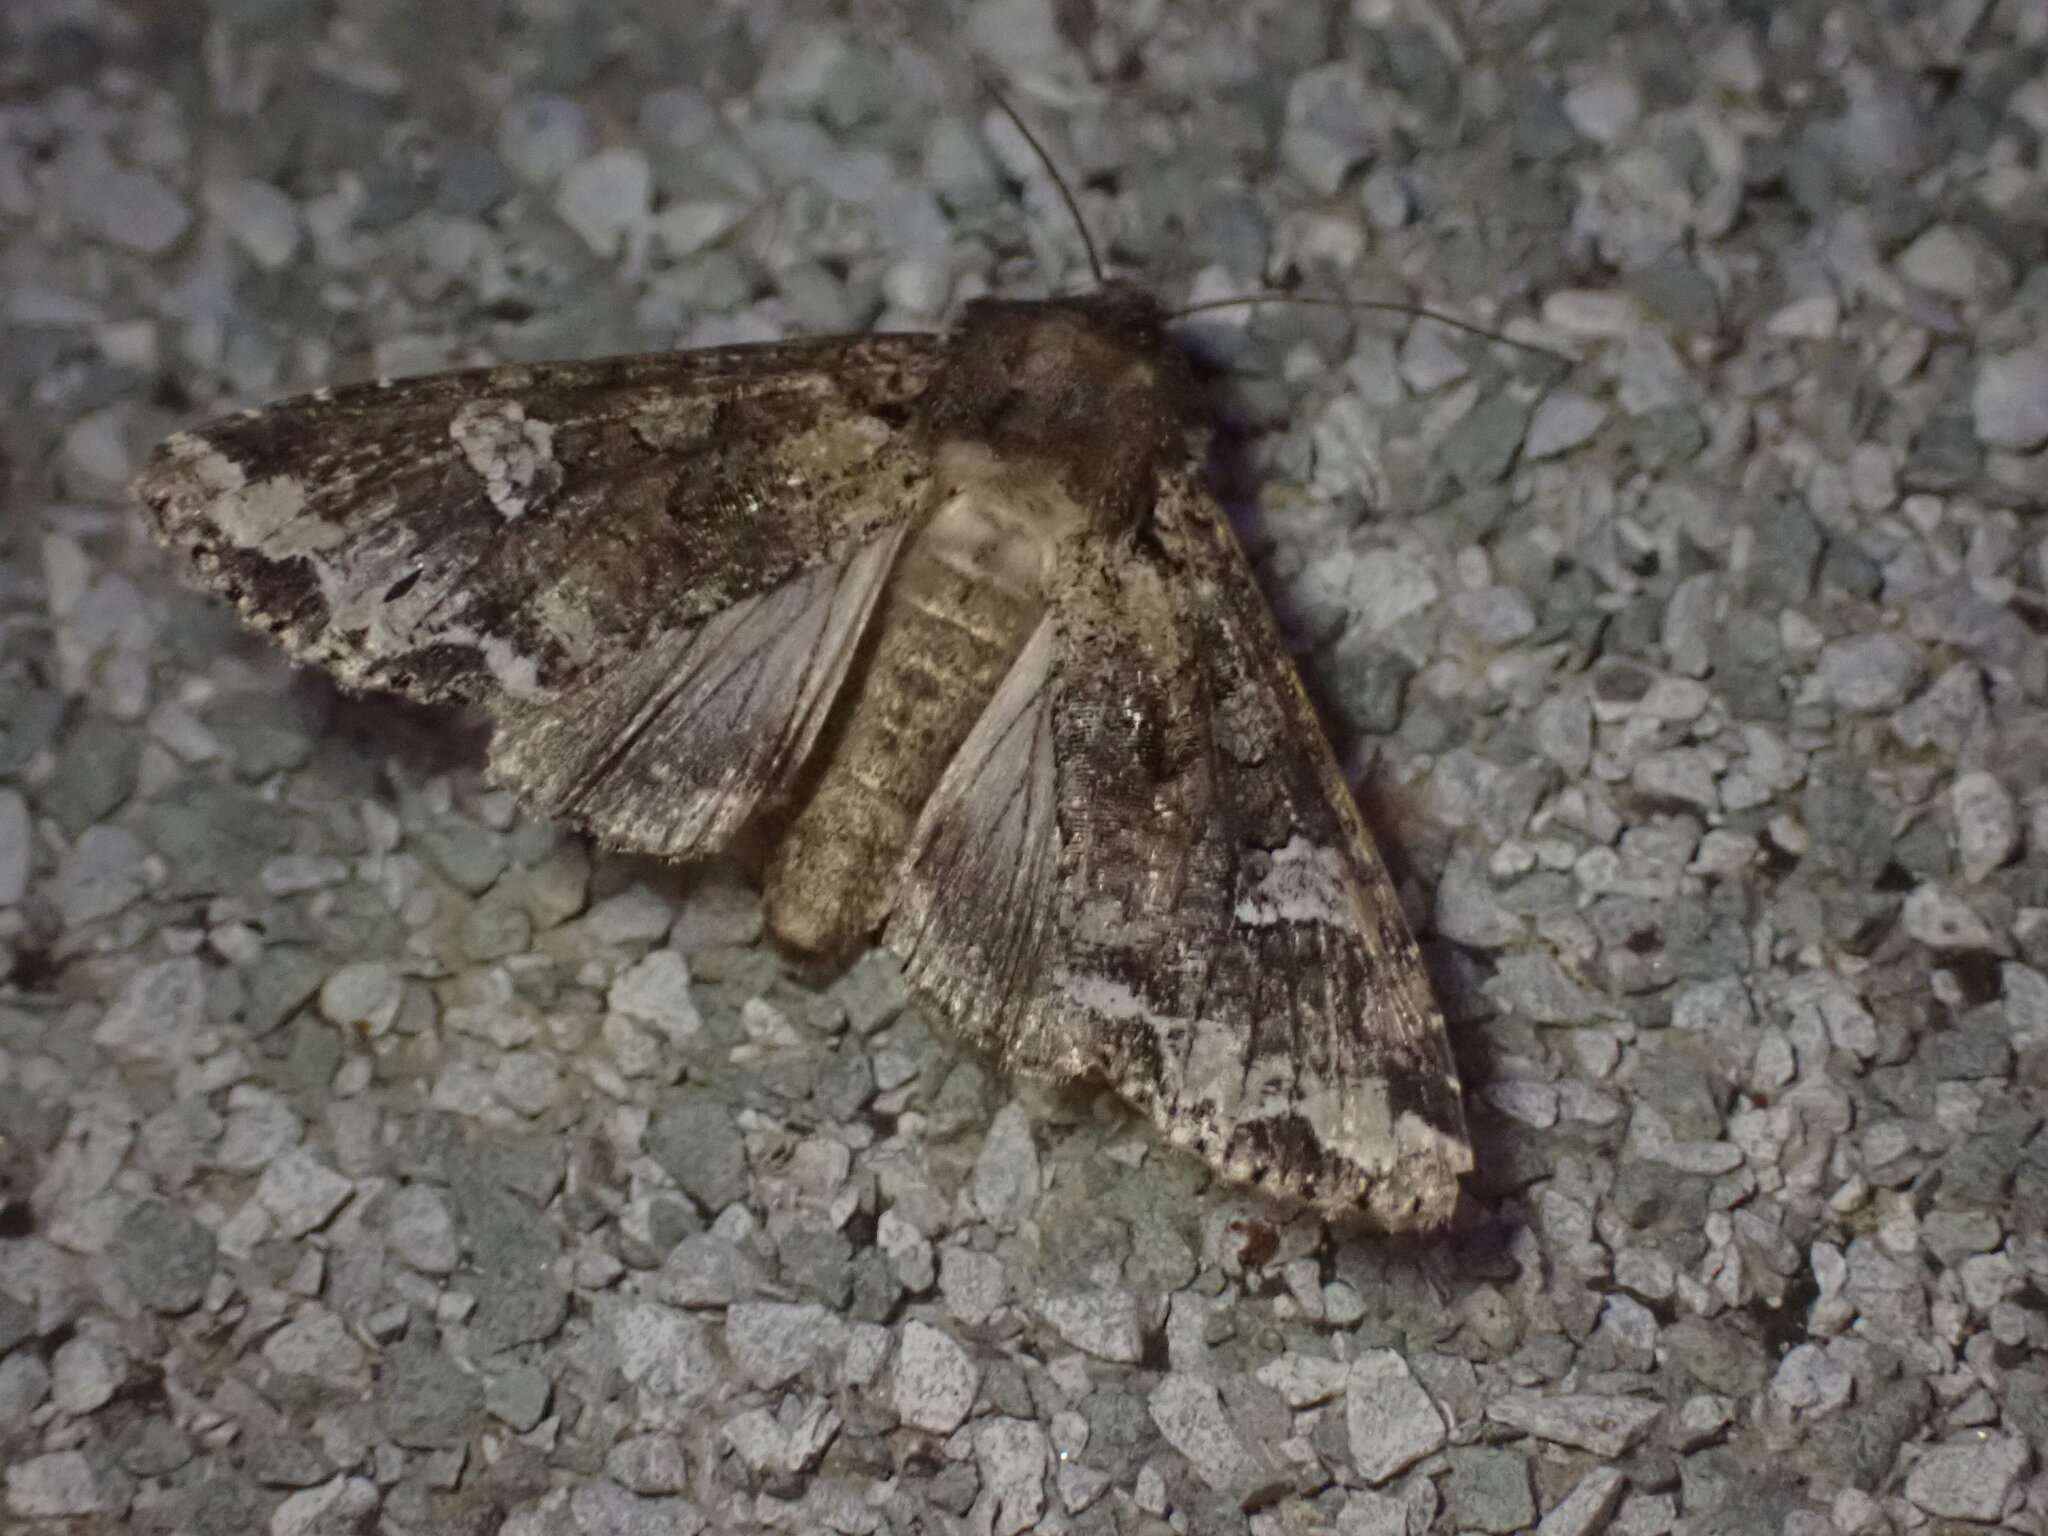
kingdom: Animalia
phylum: Arthropoda
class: Insecta
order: Lepidoptera
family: Noctuidae
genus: Mamestra
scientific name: Mamestra configurata
